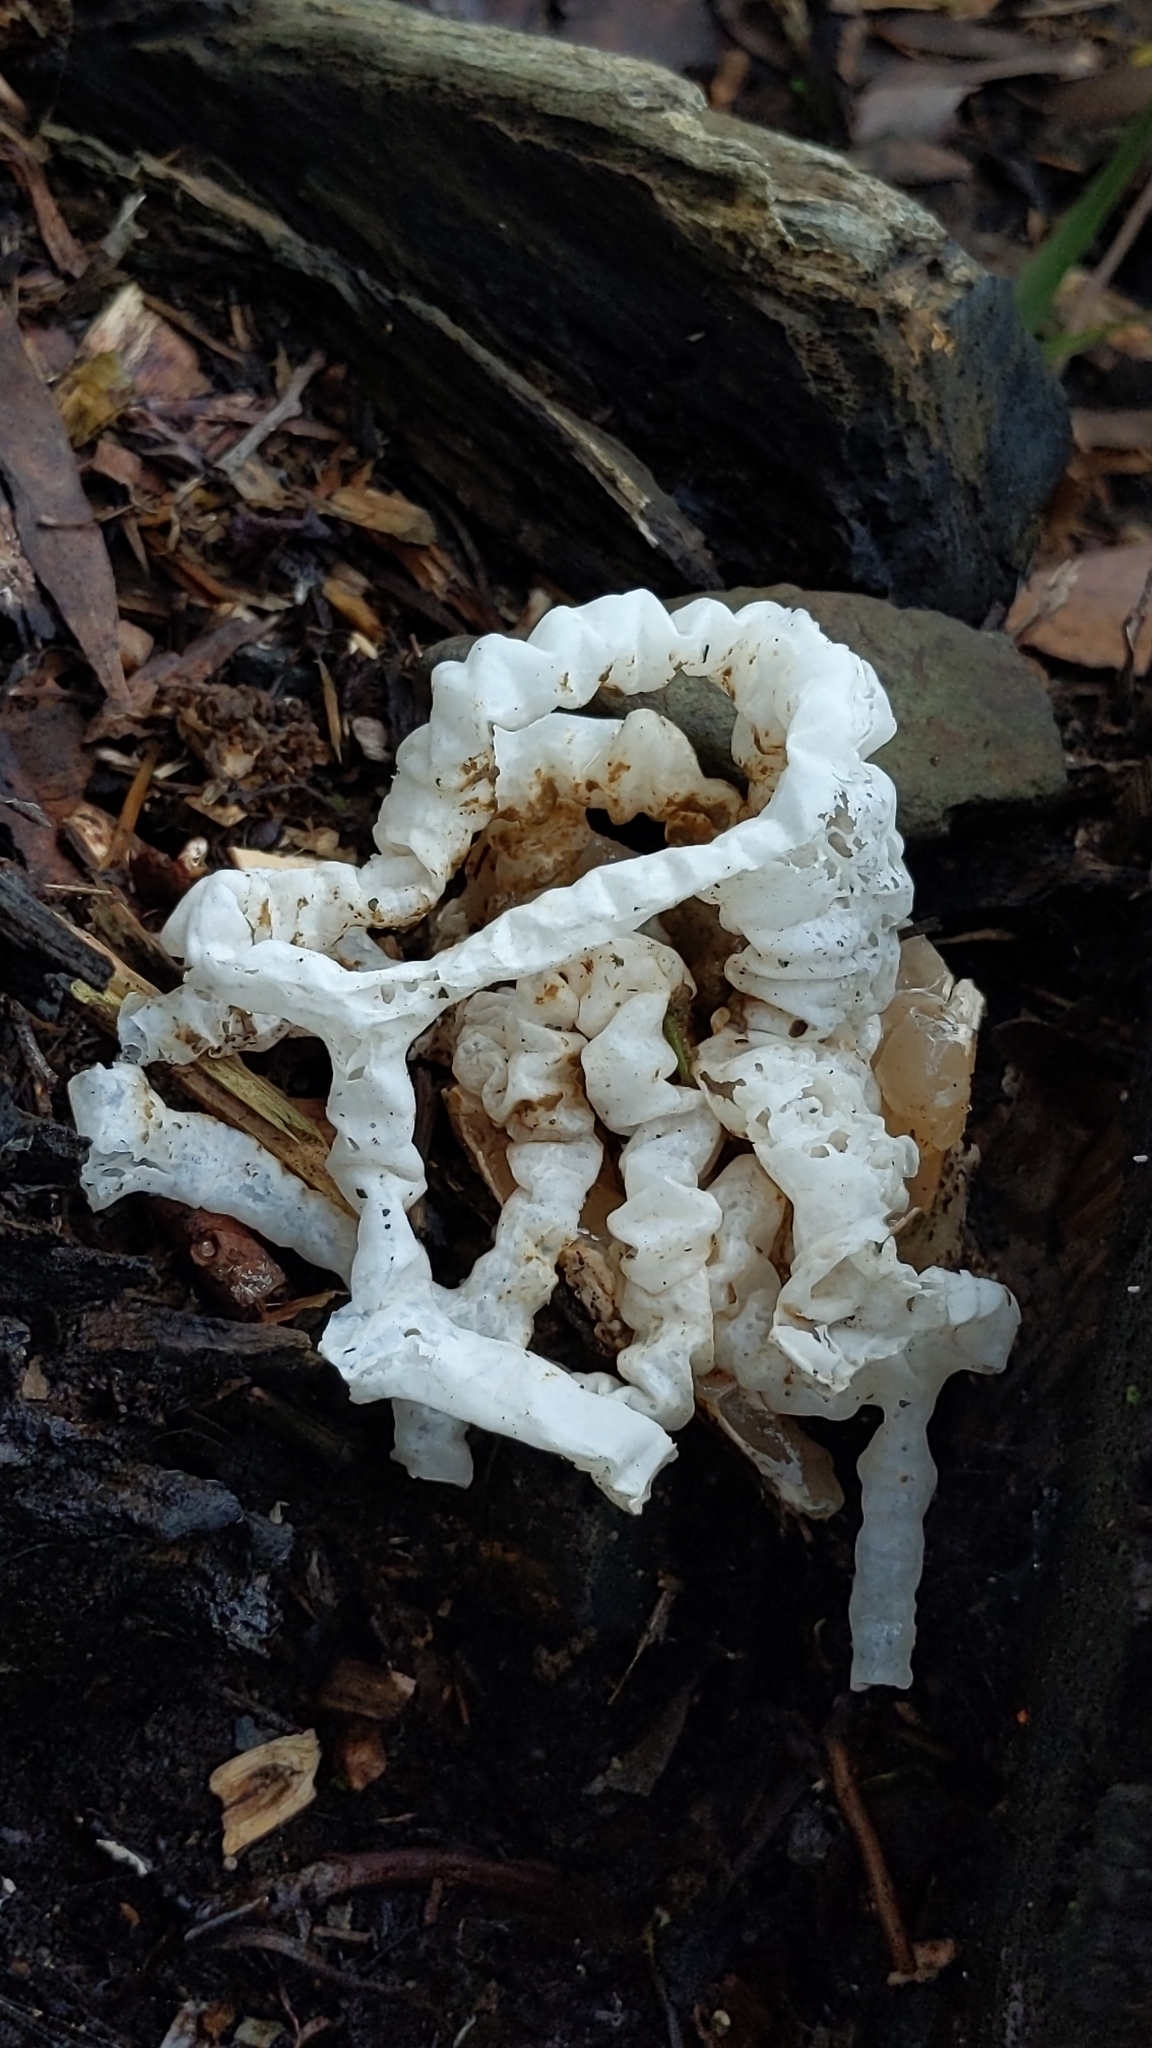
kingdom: Fungi
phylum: Basidiomycota
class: Agaricomycetes
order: Phallales
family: Phallaceae
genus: Ileodictyon
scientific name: Ileodictyon cibarium
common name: Basket fungus
